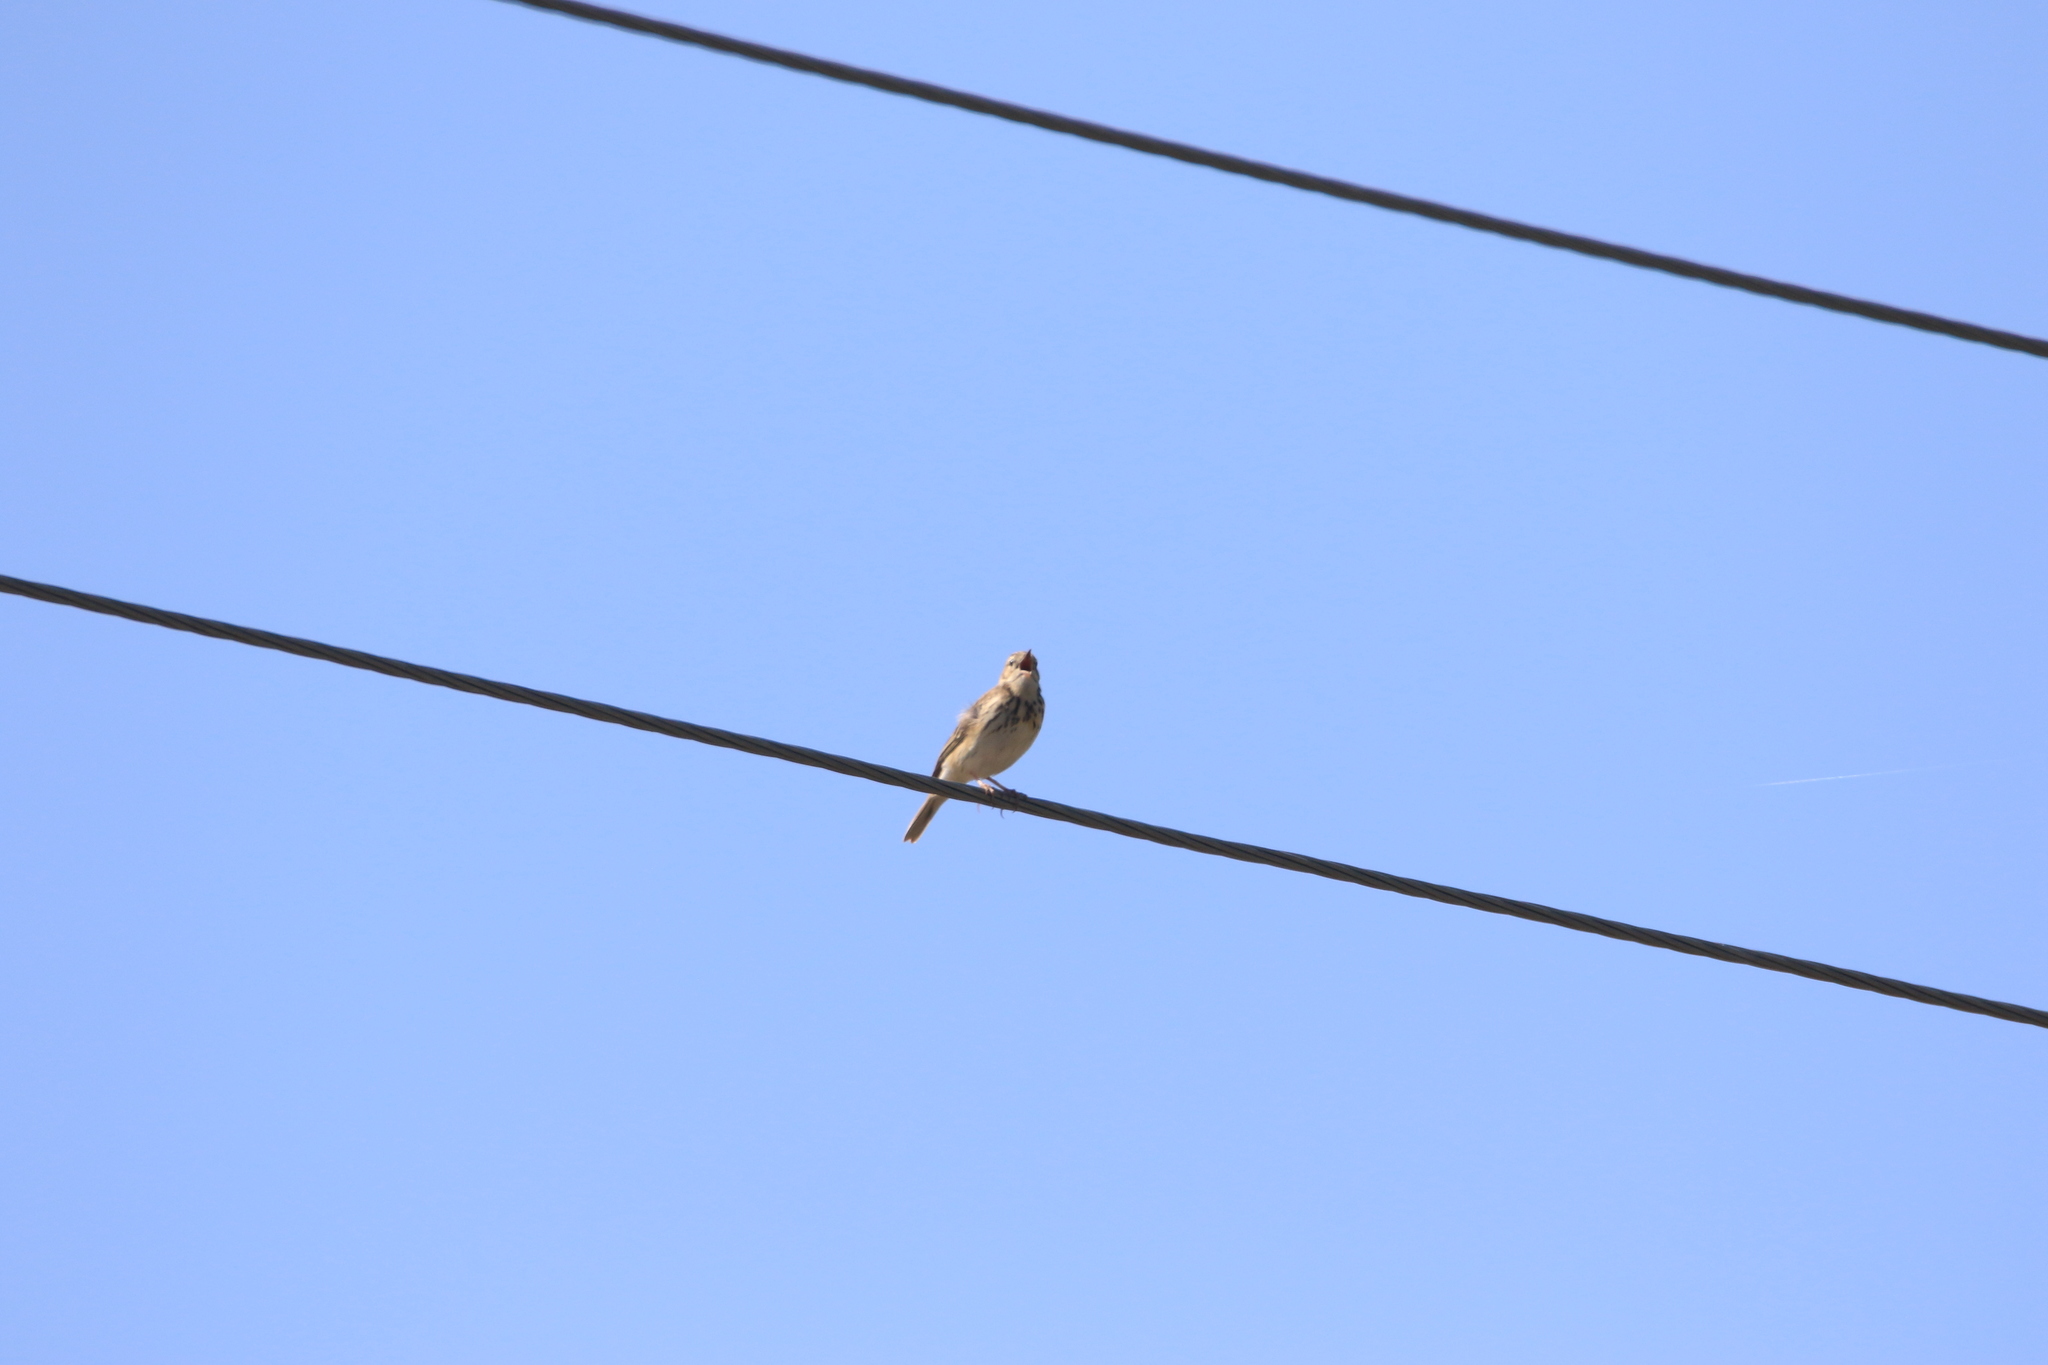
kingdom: Animalia
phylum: Chordata
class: Aves
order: Passeriformes
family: Motacillidae
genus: Anthus
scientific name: Anthus trivialis
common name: Tree pipit
